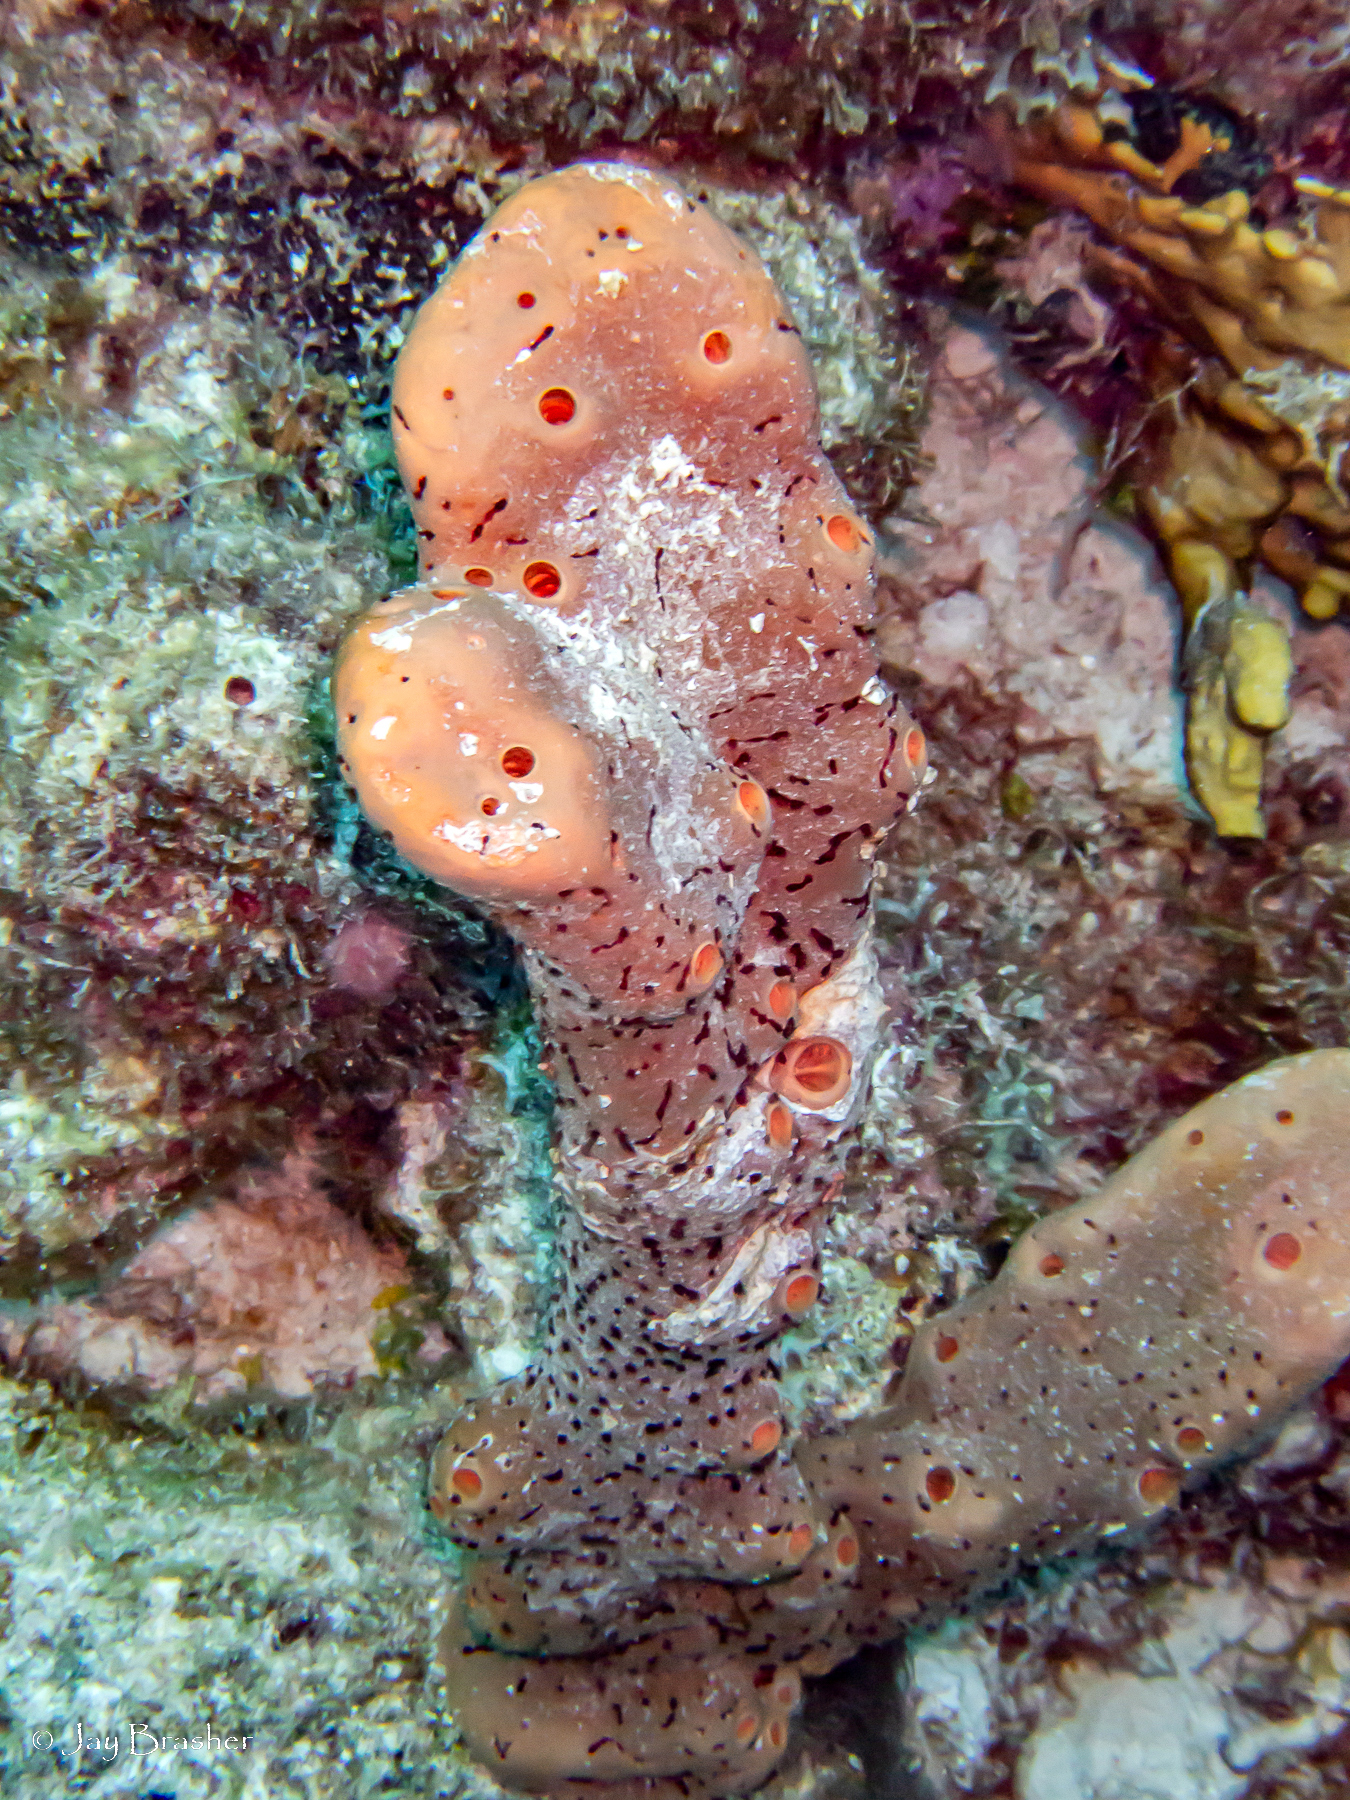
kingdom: Animalia
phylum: Porifera
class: Demospongiae
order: Agelasida
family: Agelasidae
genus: Agelas
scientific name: Agelas conifera
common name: Brown tube sponge
